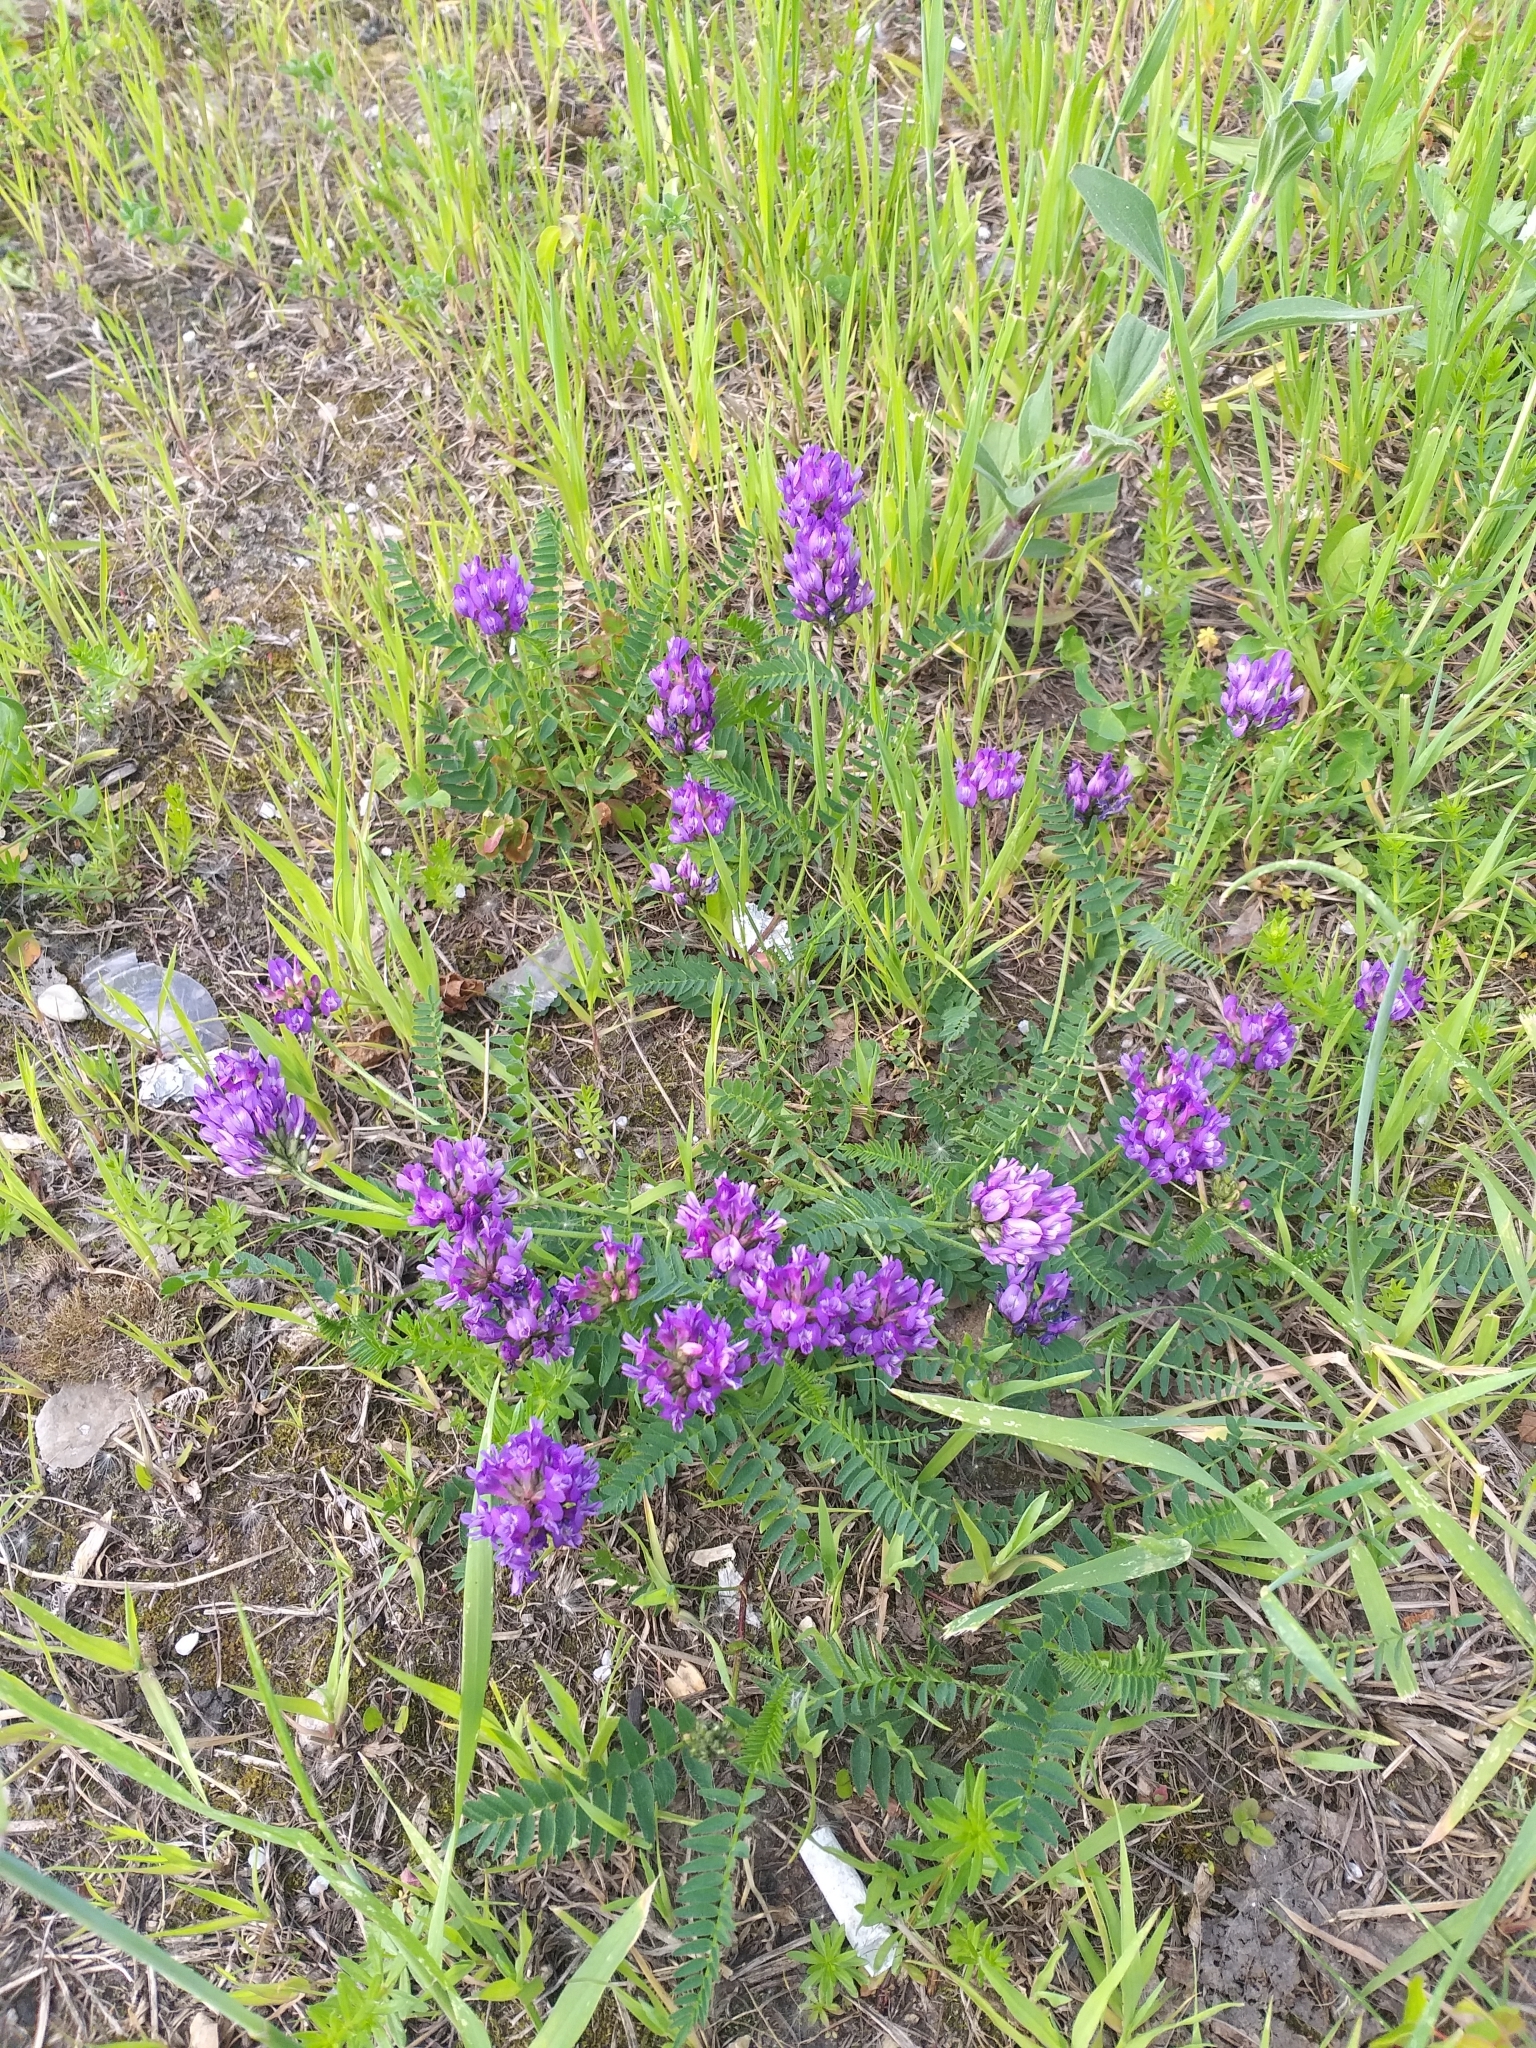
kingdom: Plantae
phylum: Tracheophyta
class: Magnoliopsida
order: Fabales
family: Fabaceae
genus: Astragalus
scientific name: Astragalus danicus
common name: Purple milk-vetch
